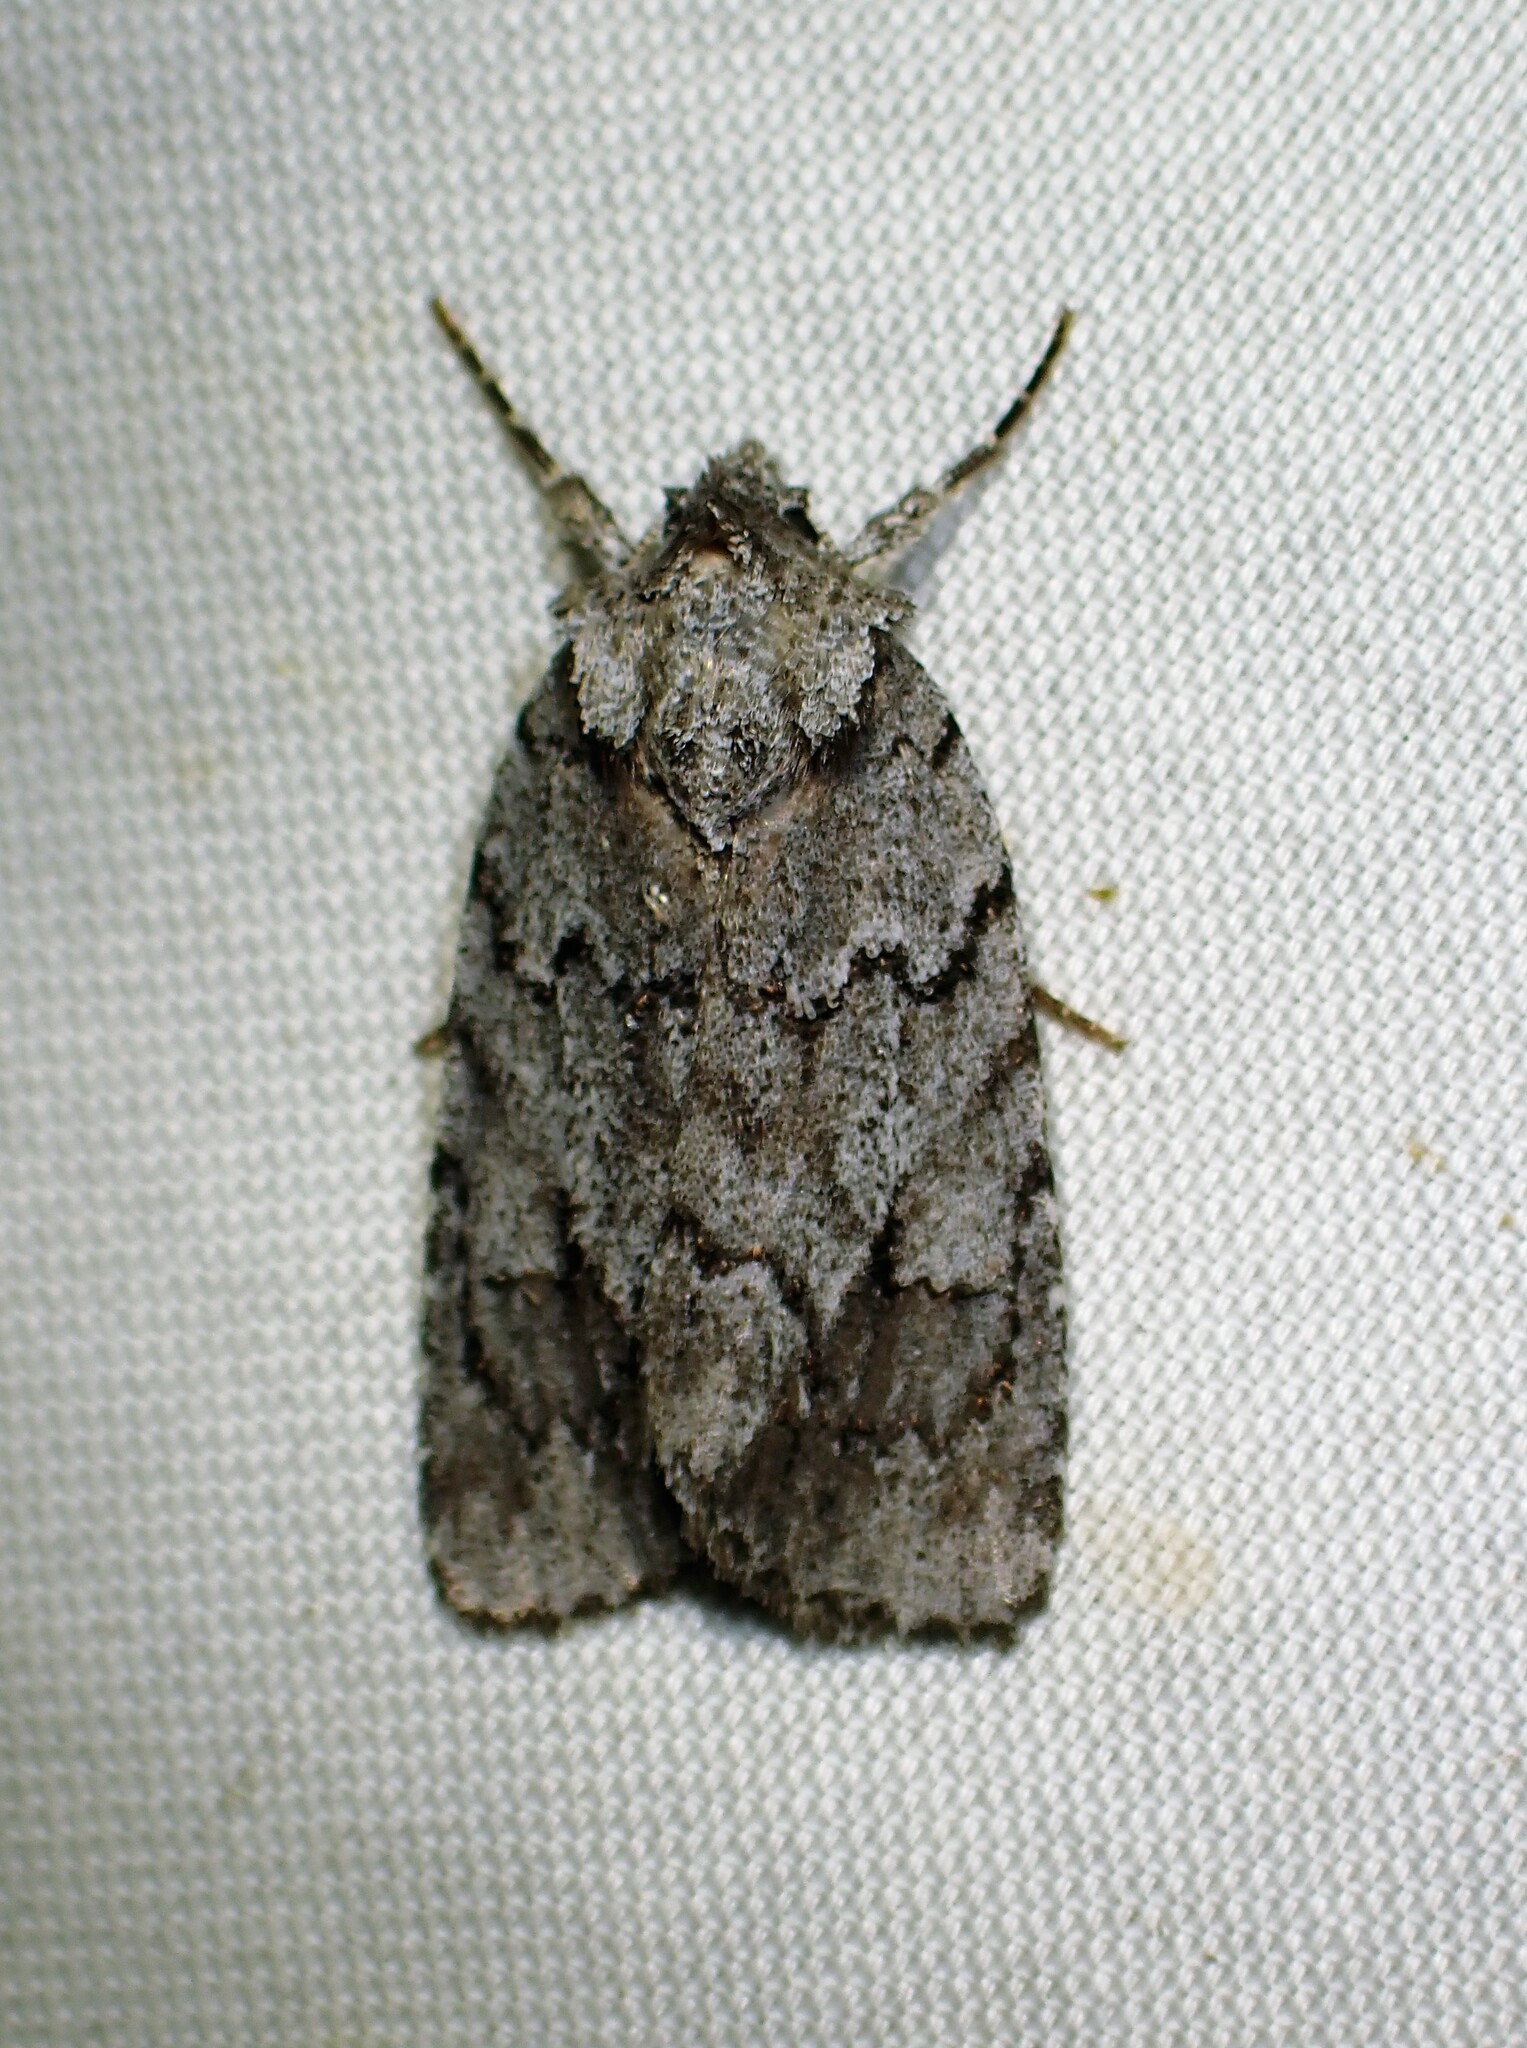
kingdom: Animalia
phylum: Arthropoda
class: Insecta
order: Lepidoptera
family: Noctuidae
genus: Sympistis
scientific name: Sympistis dentata
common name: Blueberry sallow
